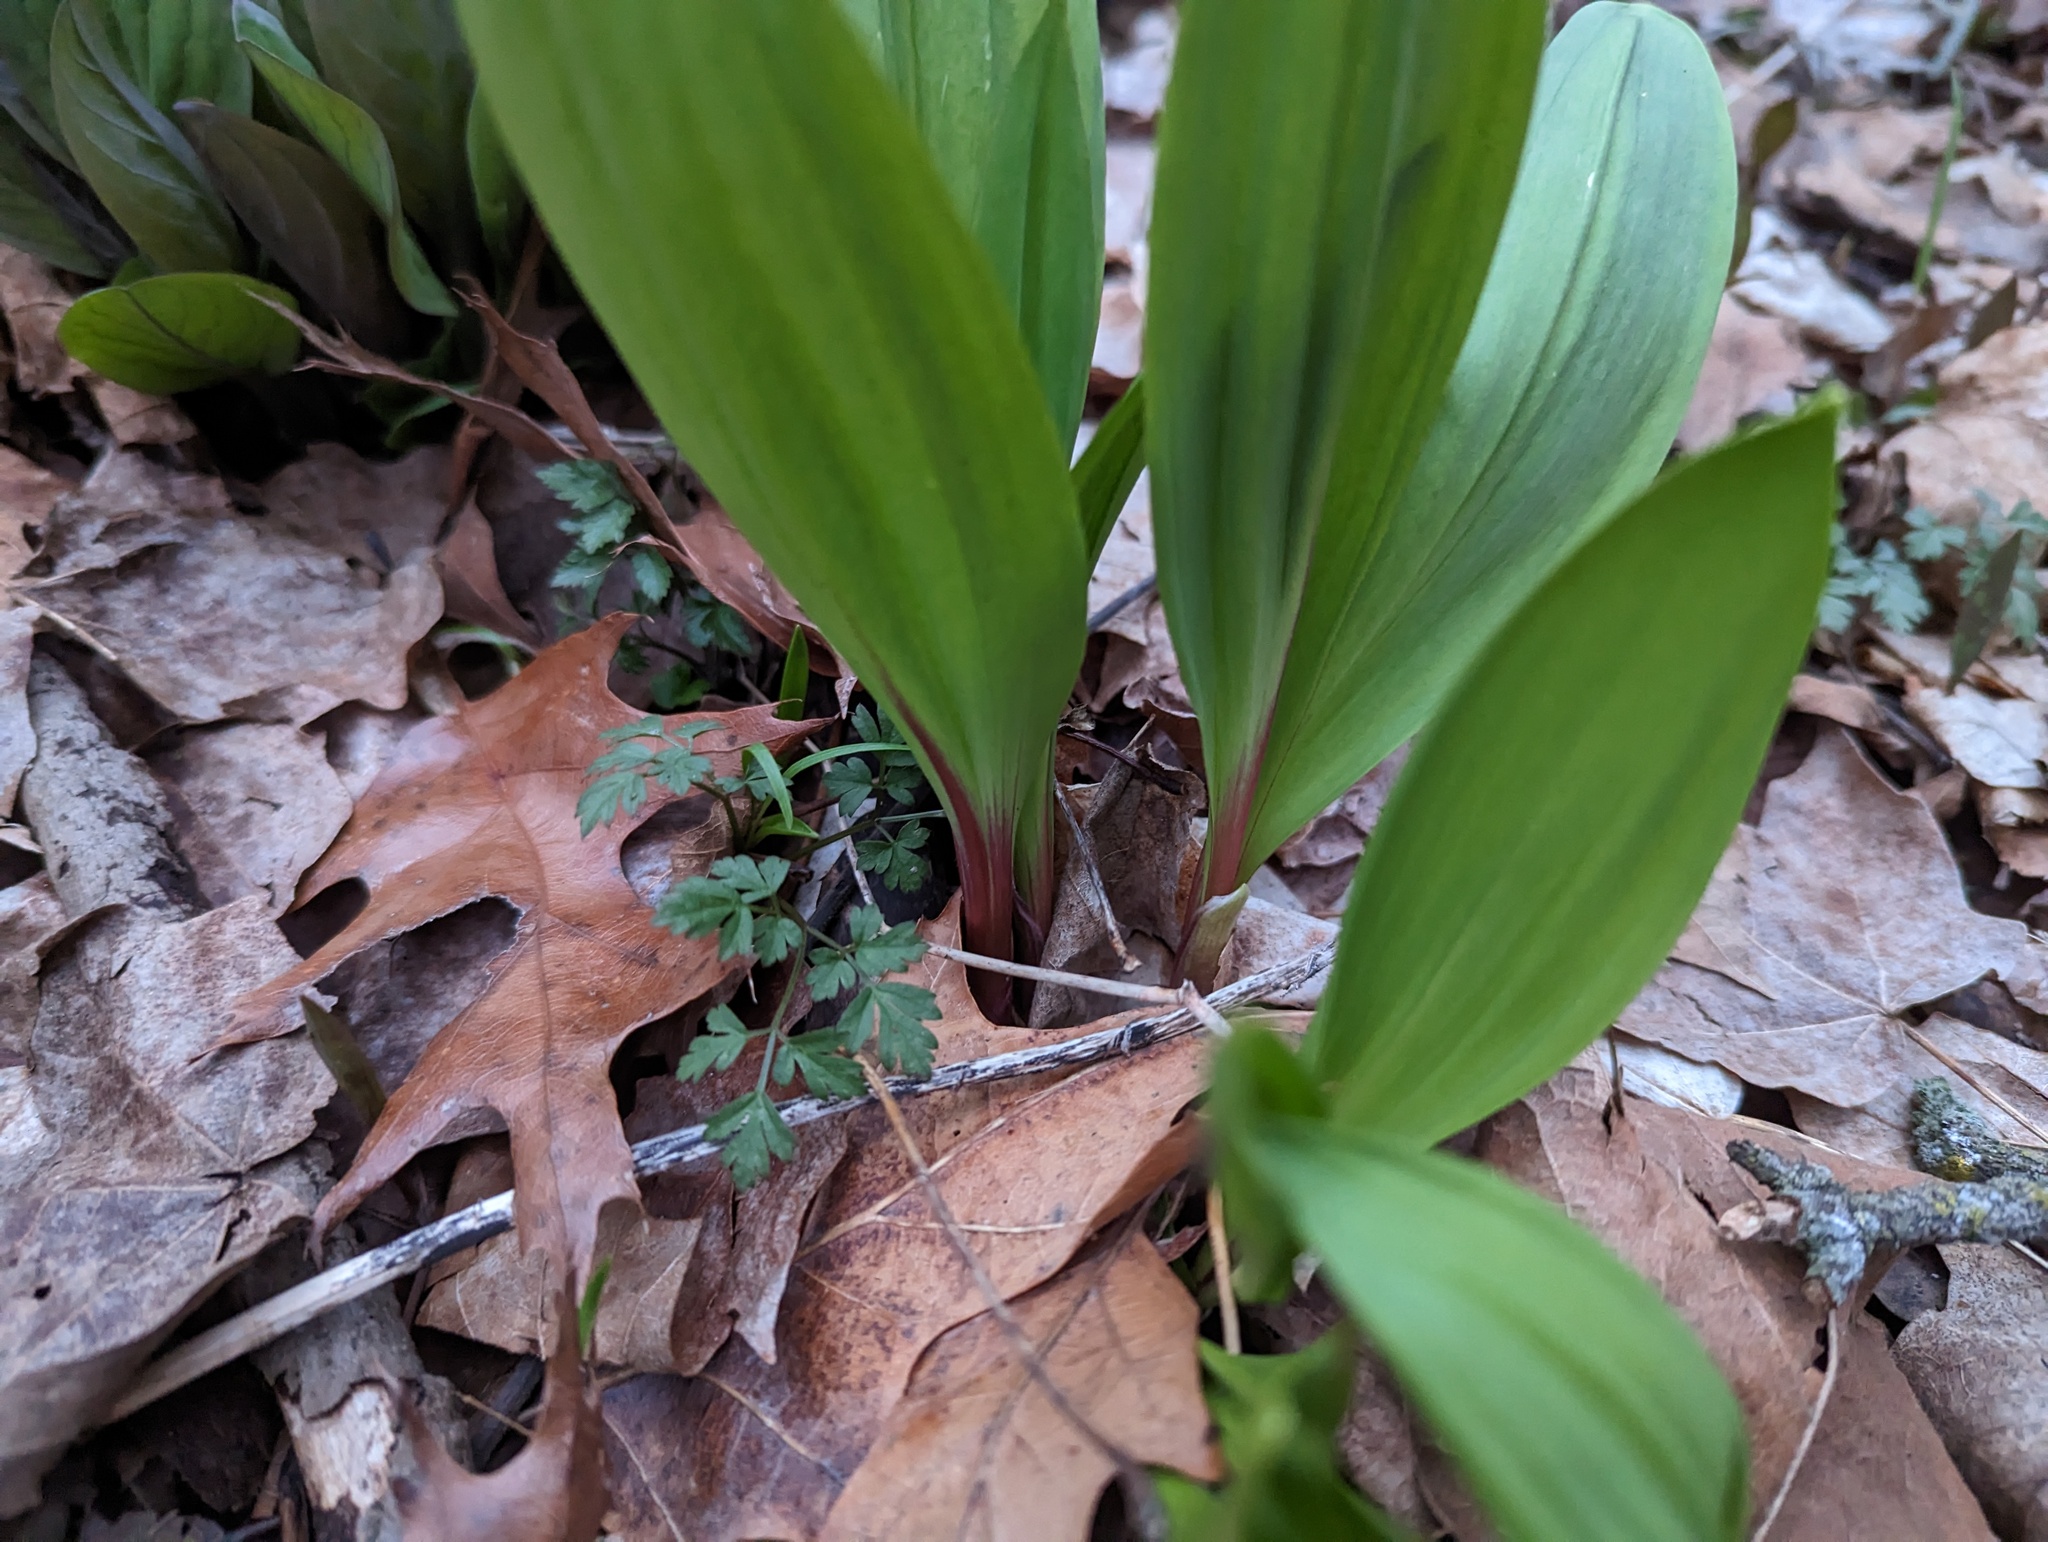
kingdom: Plantae
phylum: Tracheophyta
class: Liliopsida
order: Asparagales
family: Amaryllidaceae
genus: Allium
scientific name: Allium tricoccum
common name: Ramp
